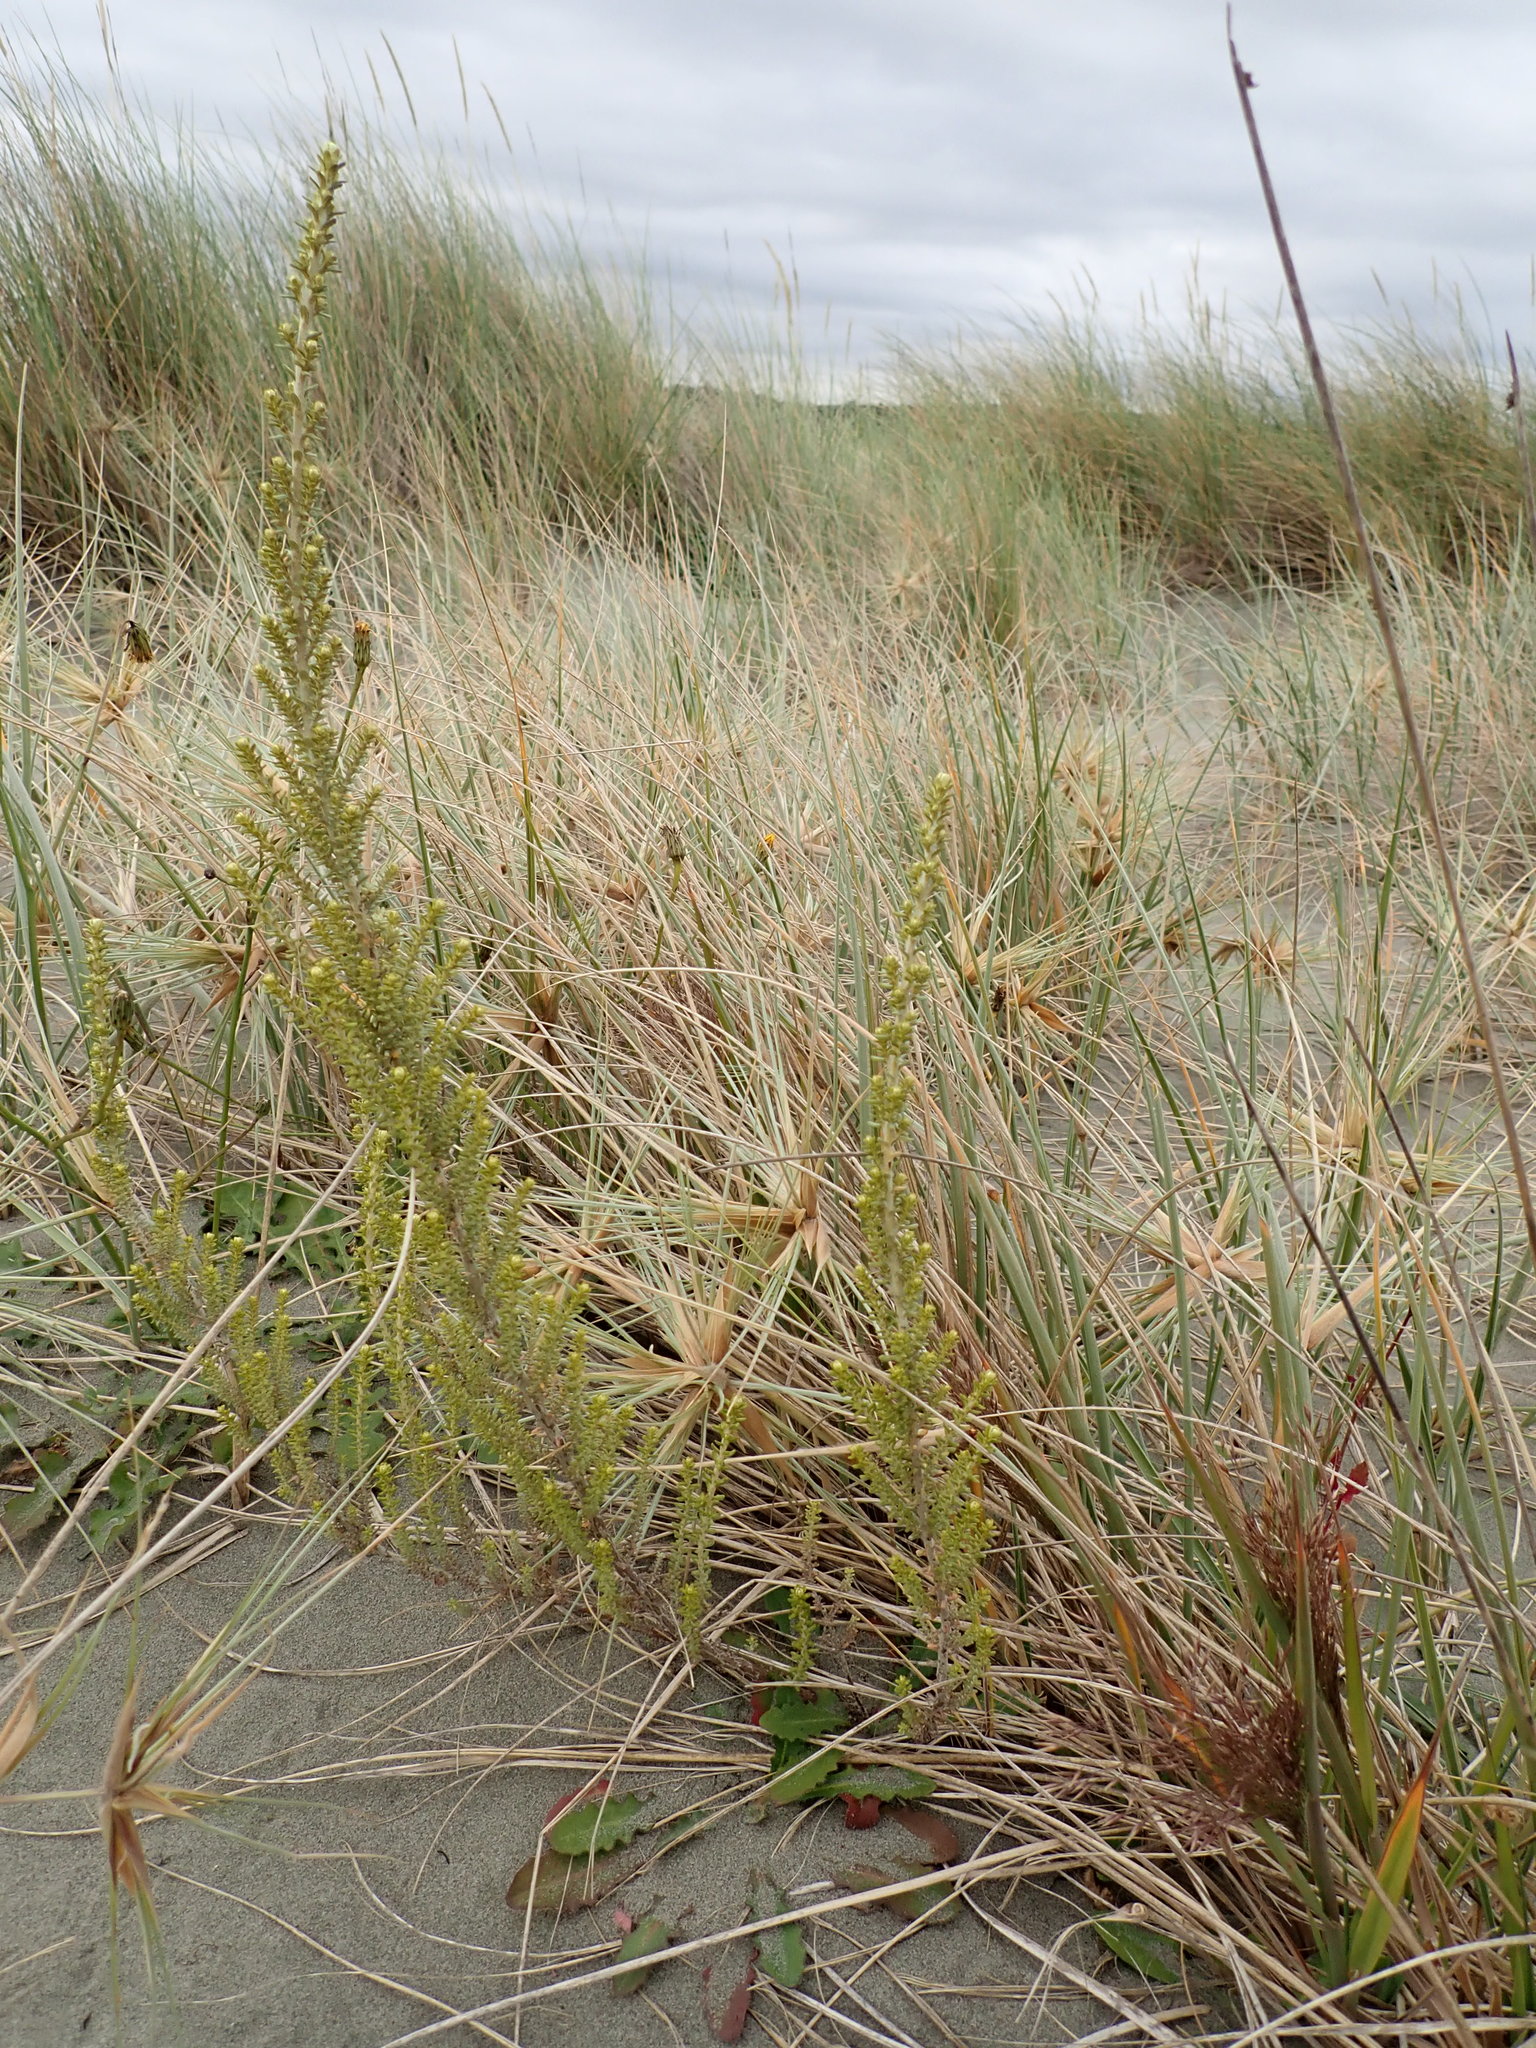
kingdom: Plantae
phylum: Tracheophyta
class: Magnoliopsida
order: Asterales
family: Asteraceae
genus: Ozothamnus
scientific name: Ozothamnus leptophyllus
